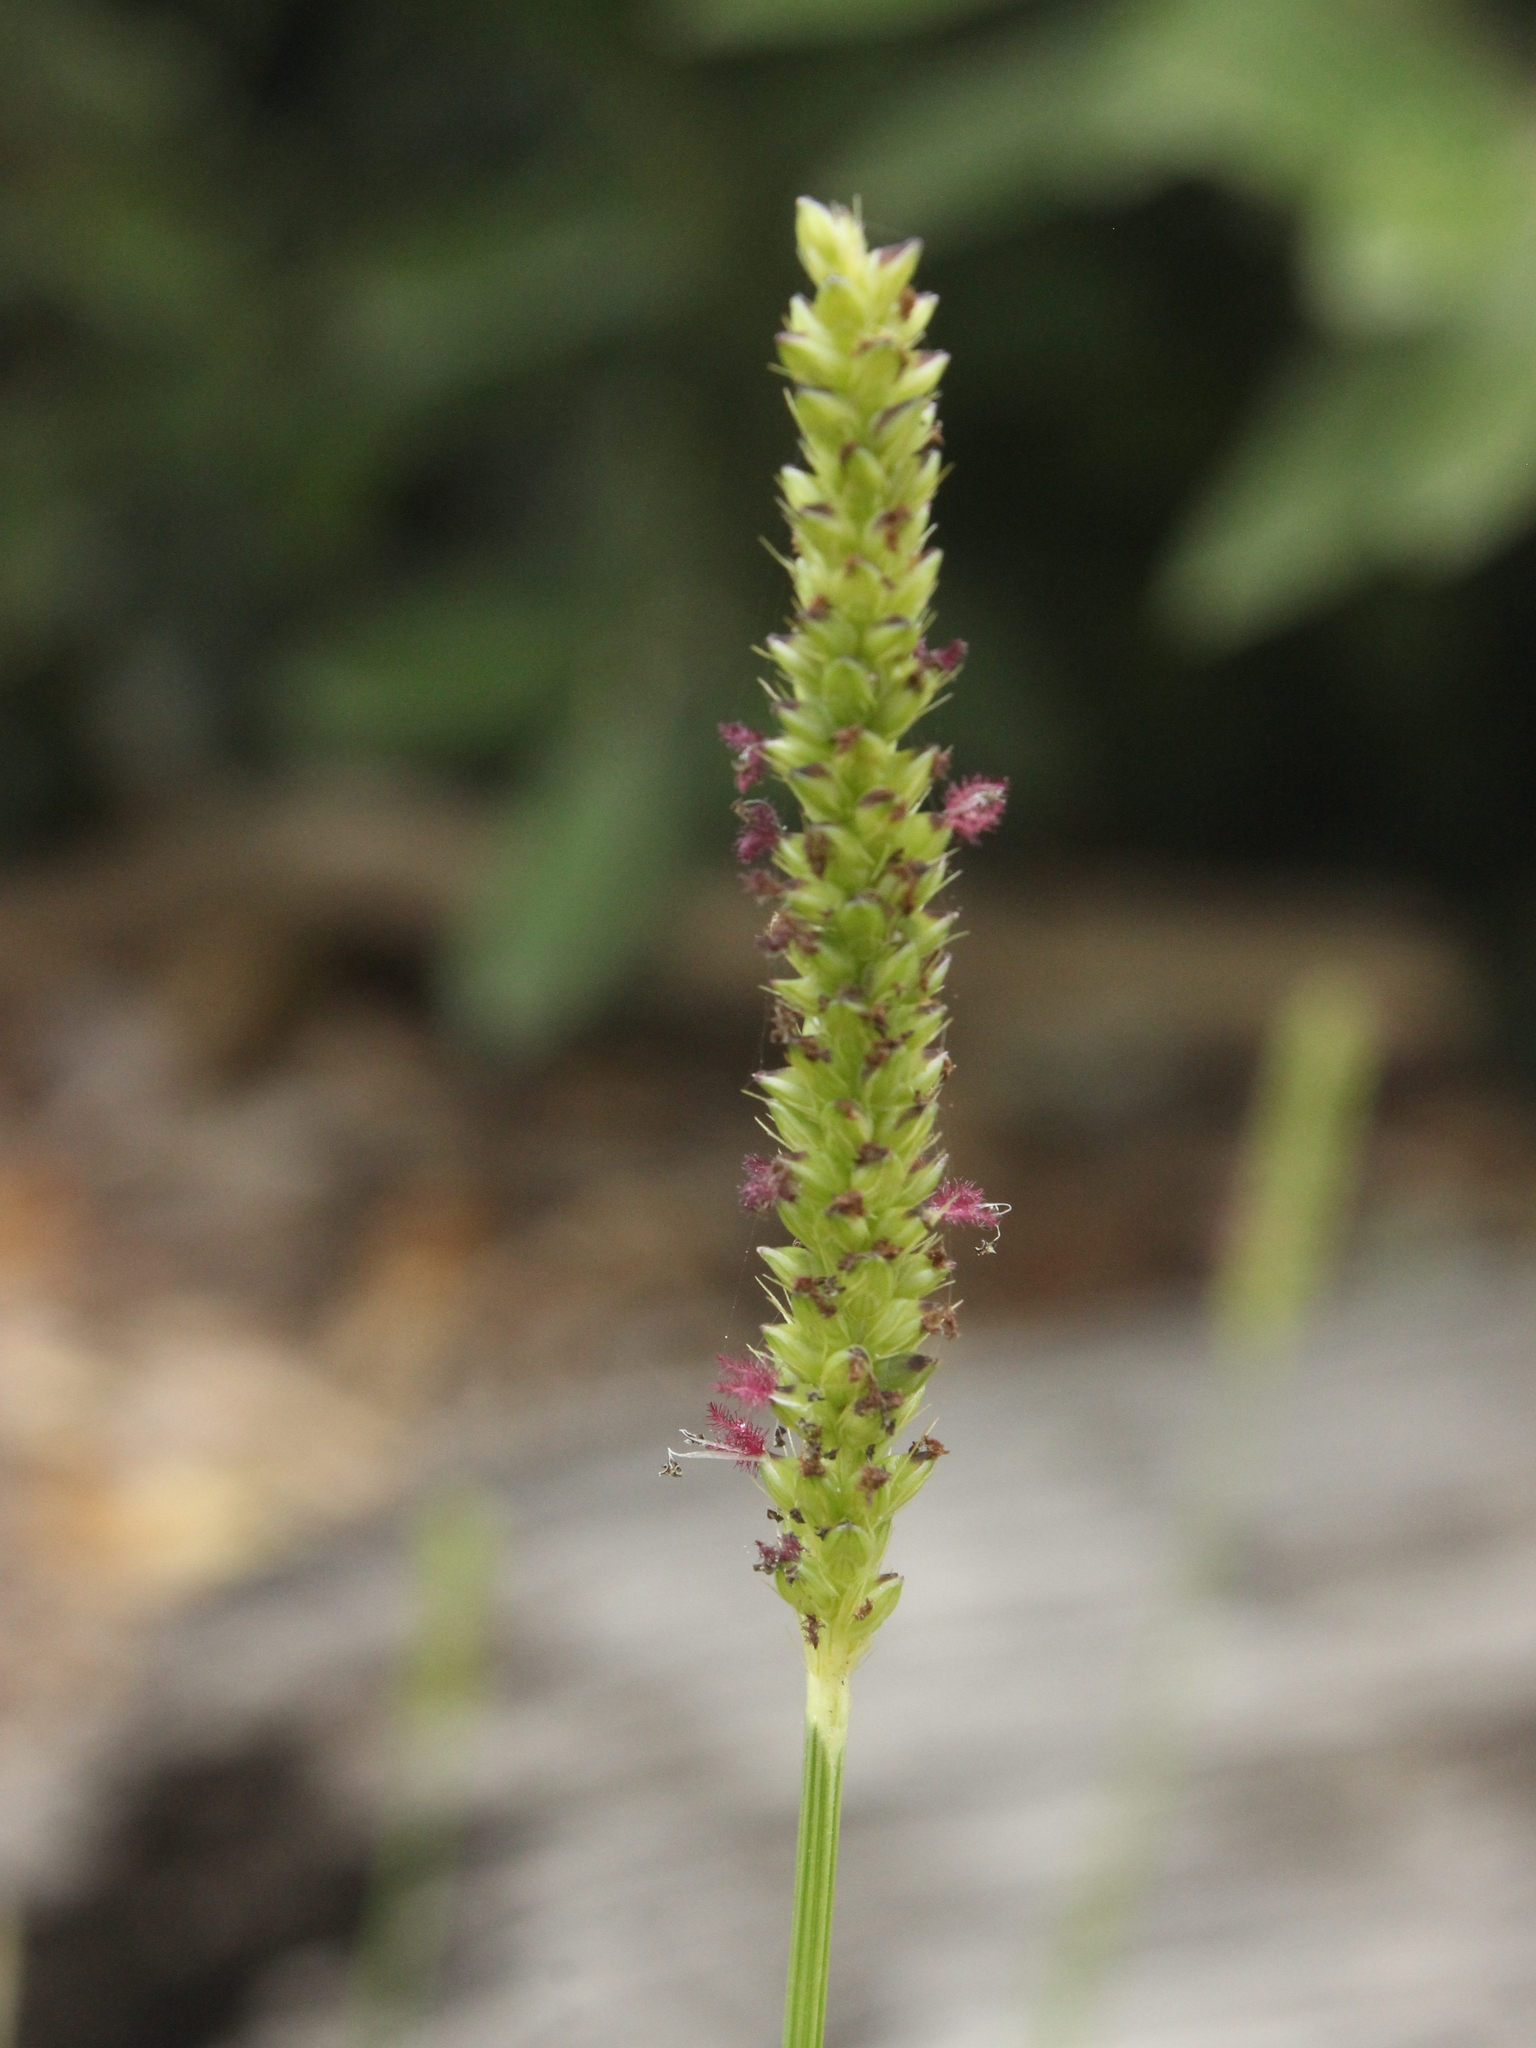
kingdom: Plantae
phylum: Tracheophyta
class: Liliopsida
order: Poales
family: Poaceae
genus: Setaria
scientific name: Setaria parviflora
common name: Knotroot bristle-grass
